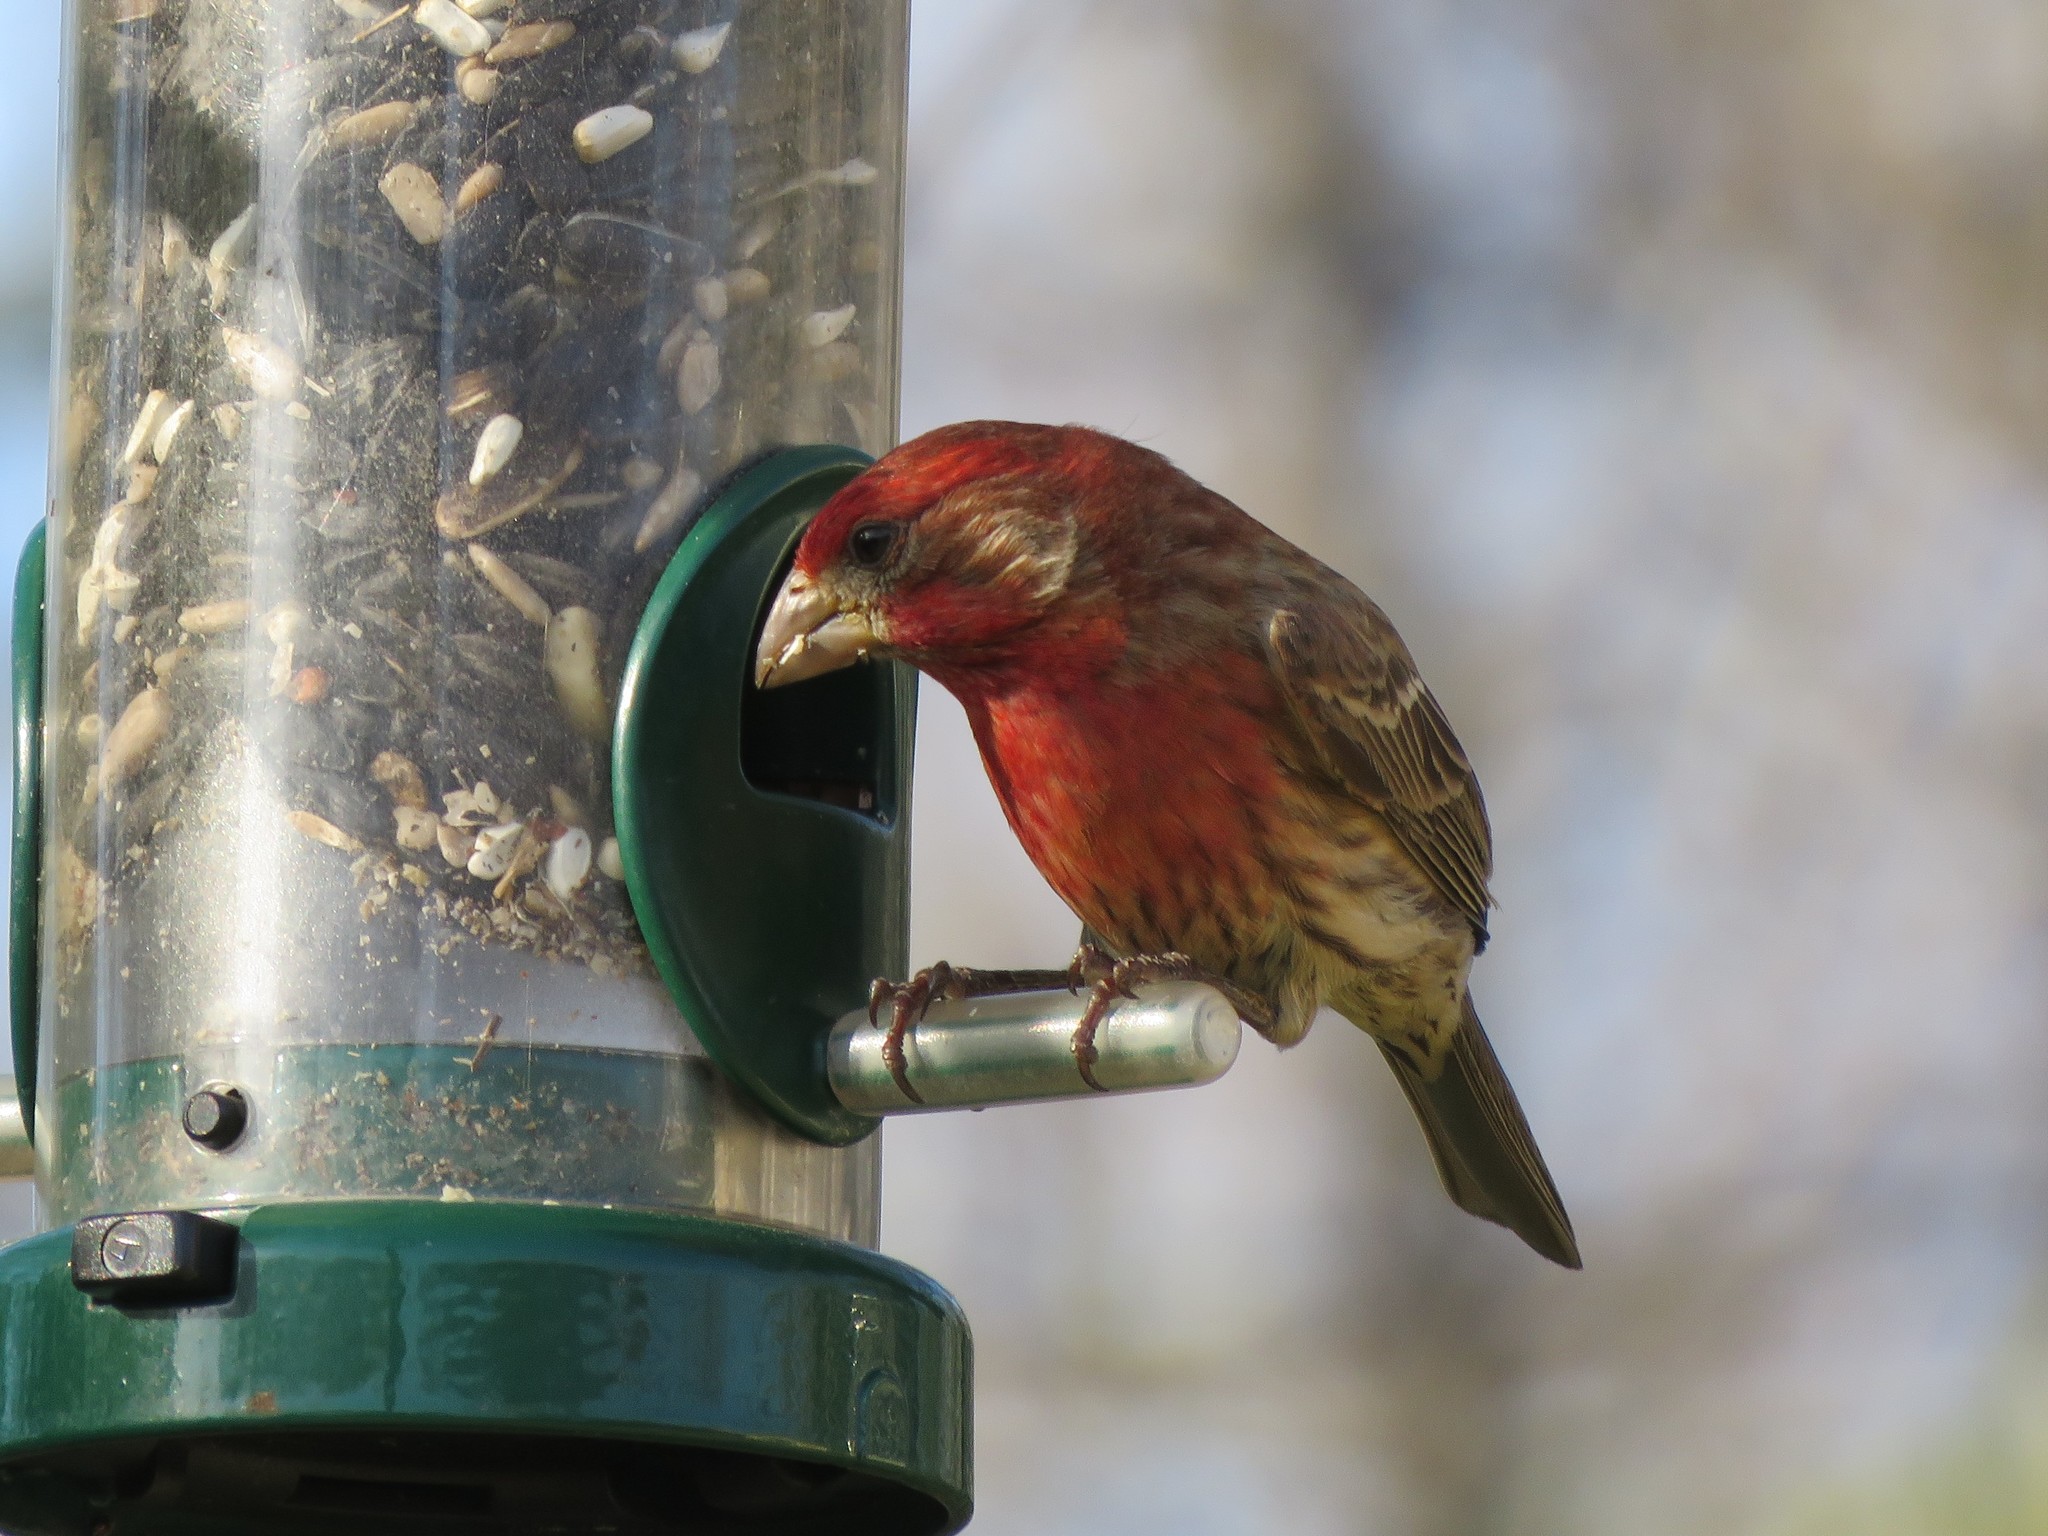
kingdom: Animalia
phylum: Chordata
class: Aves
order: Passeriformes
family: Fringillidae
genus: Haemorhous
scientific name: Haemorhous mexicanus
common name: House finch
